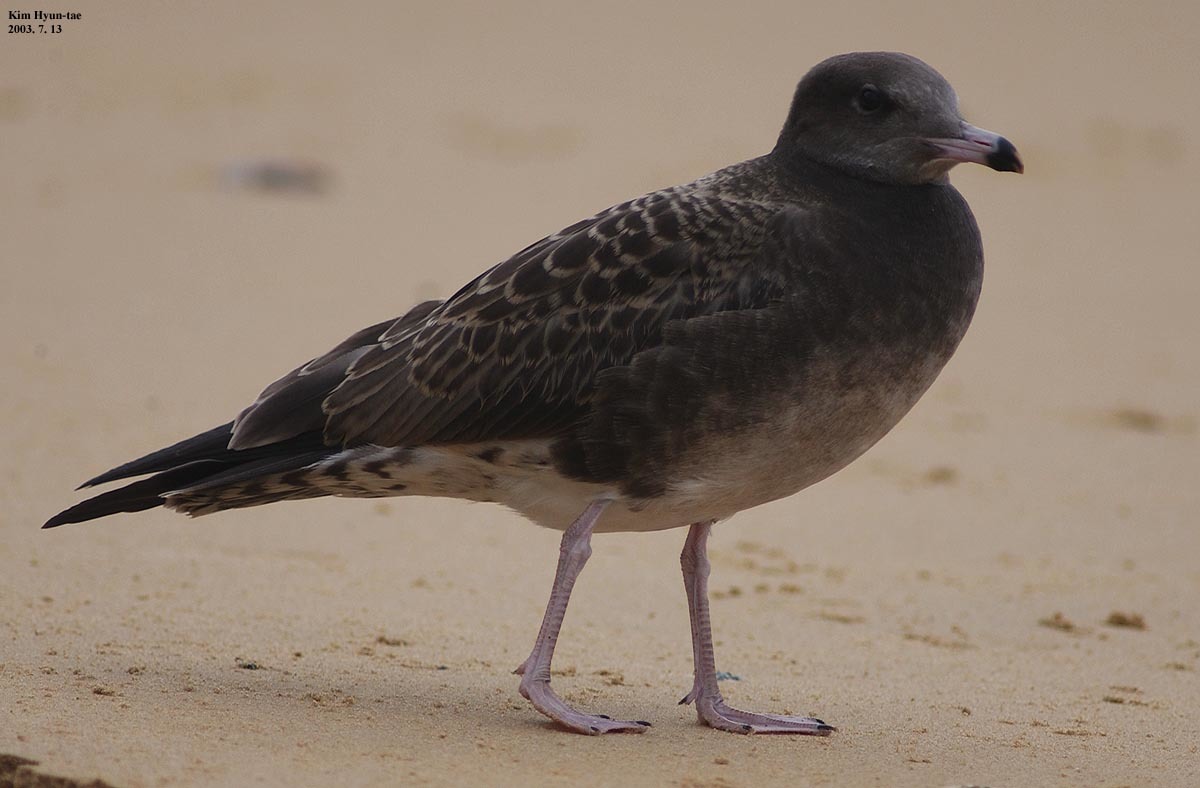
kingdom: Animalia
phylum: Chordata
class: Aves
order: Charadriiformes
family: Laridae
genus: Larus
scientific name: Larus crassirostris
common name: Black-tailed gull
